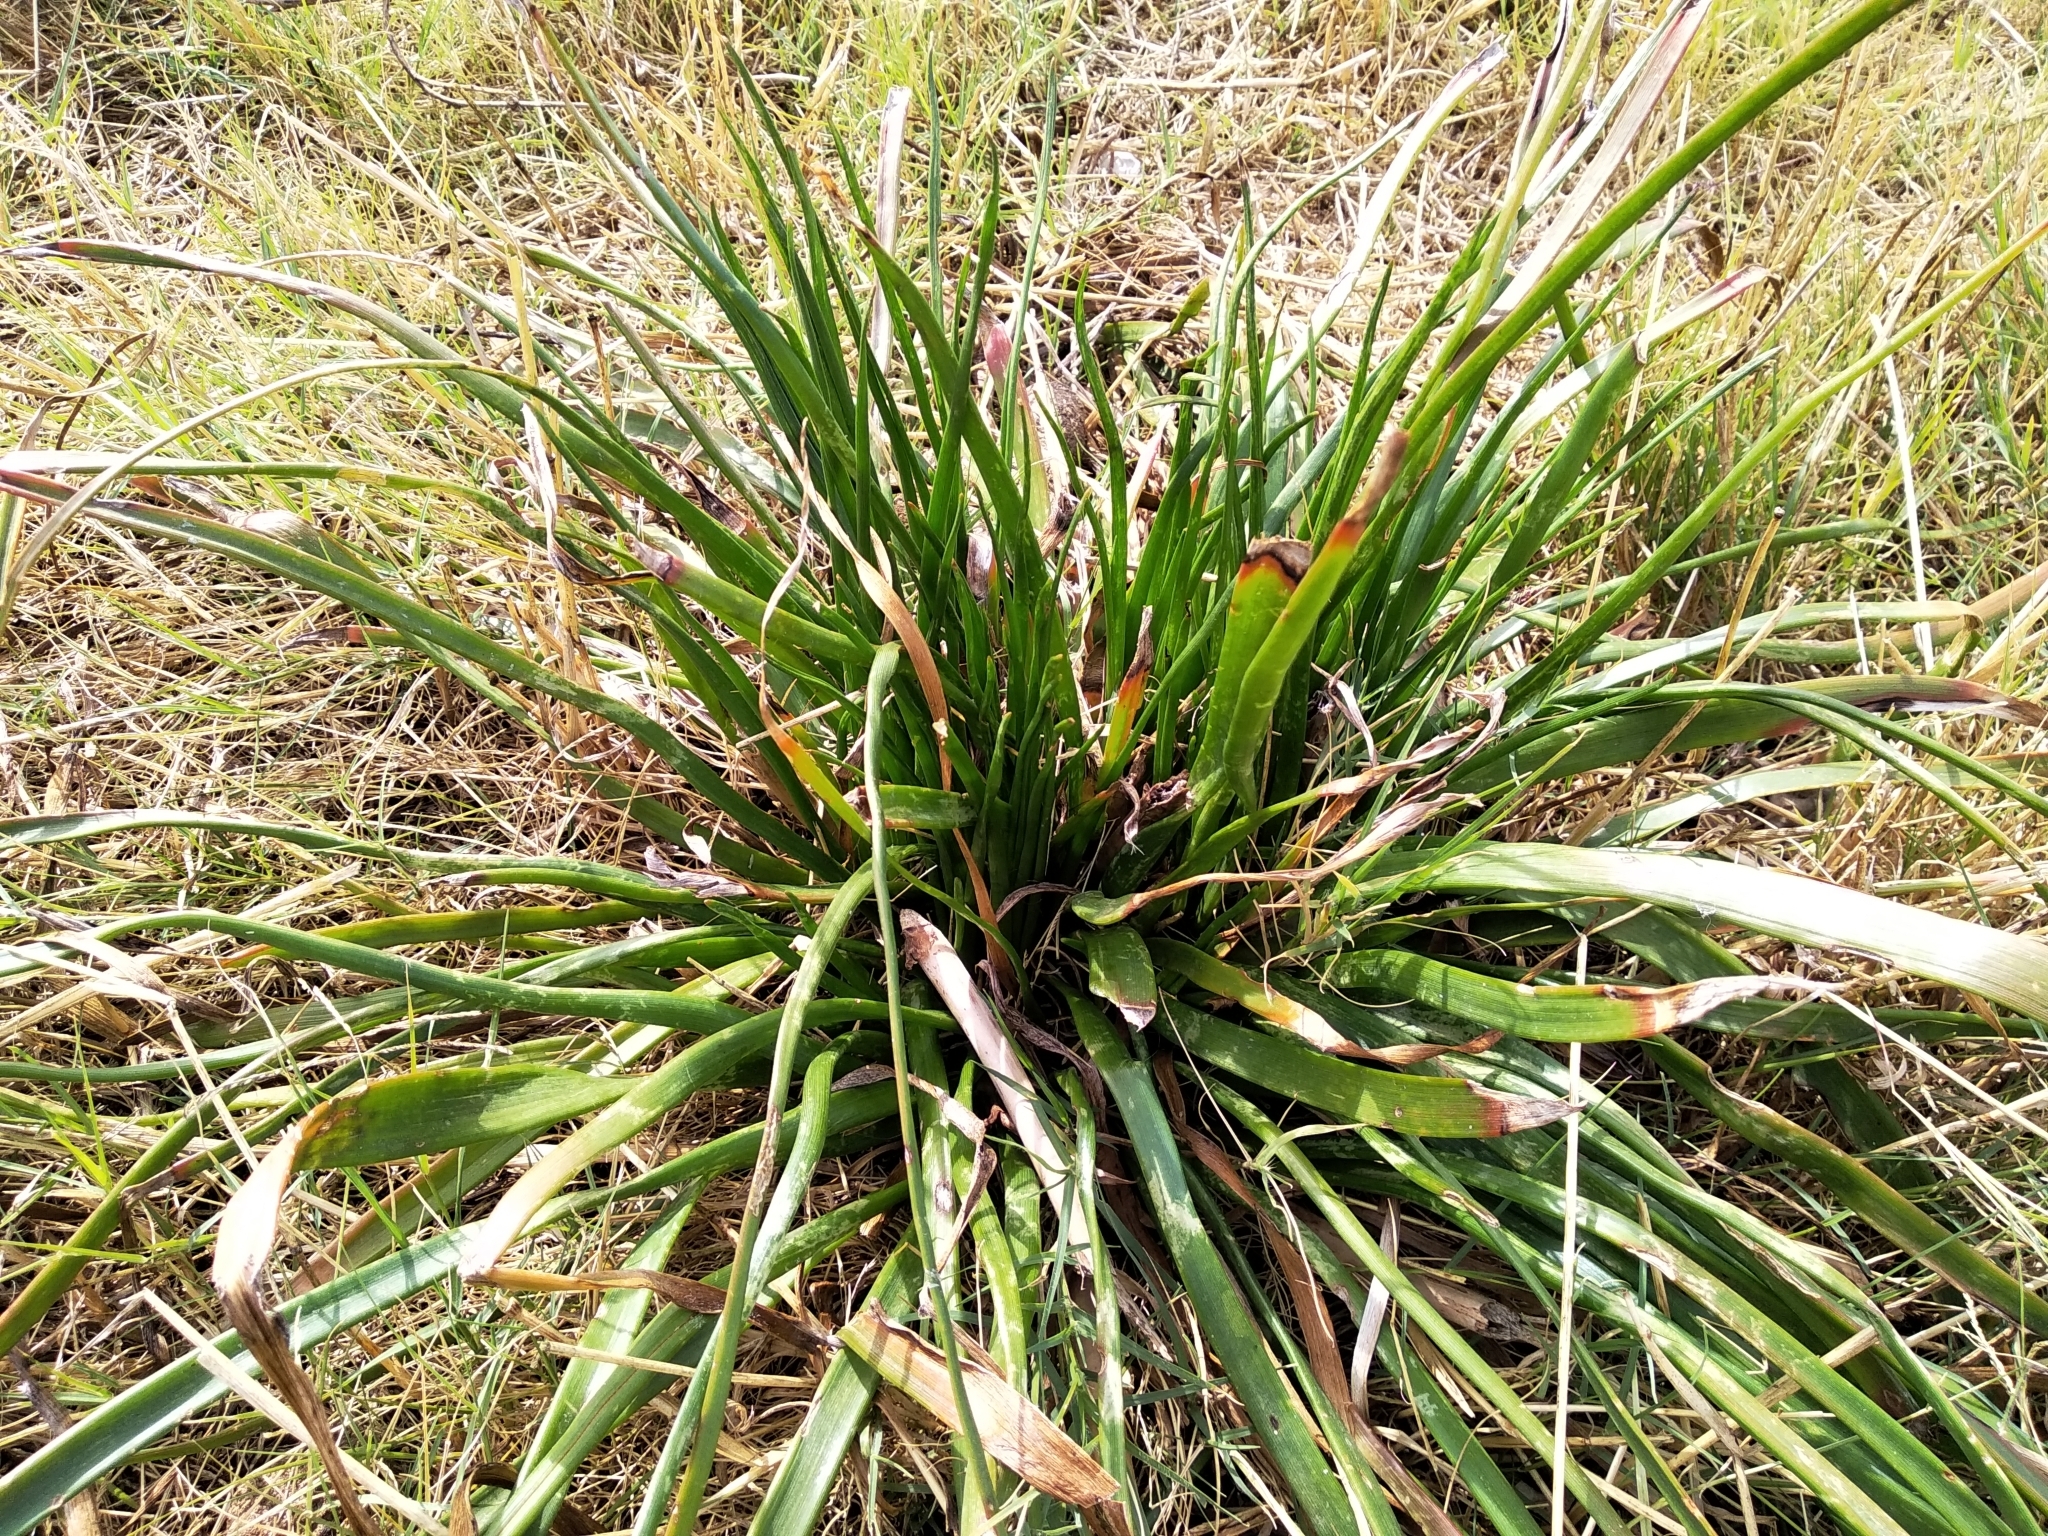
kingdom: Plantae
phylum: Tracheophyta
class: Liliopsida
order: Asparagales
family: Asphodelaceae
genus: Trachyandra
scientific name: Trachyandra divaricata
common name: Dune onionweed
